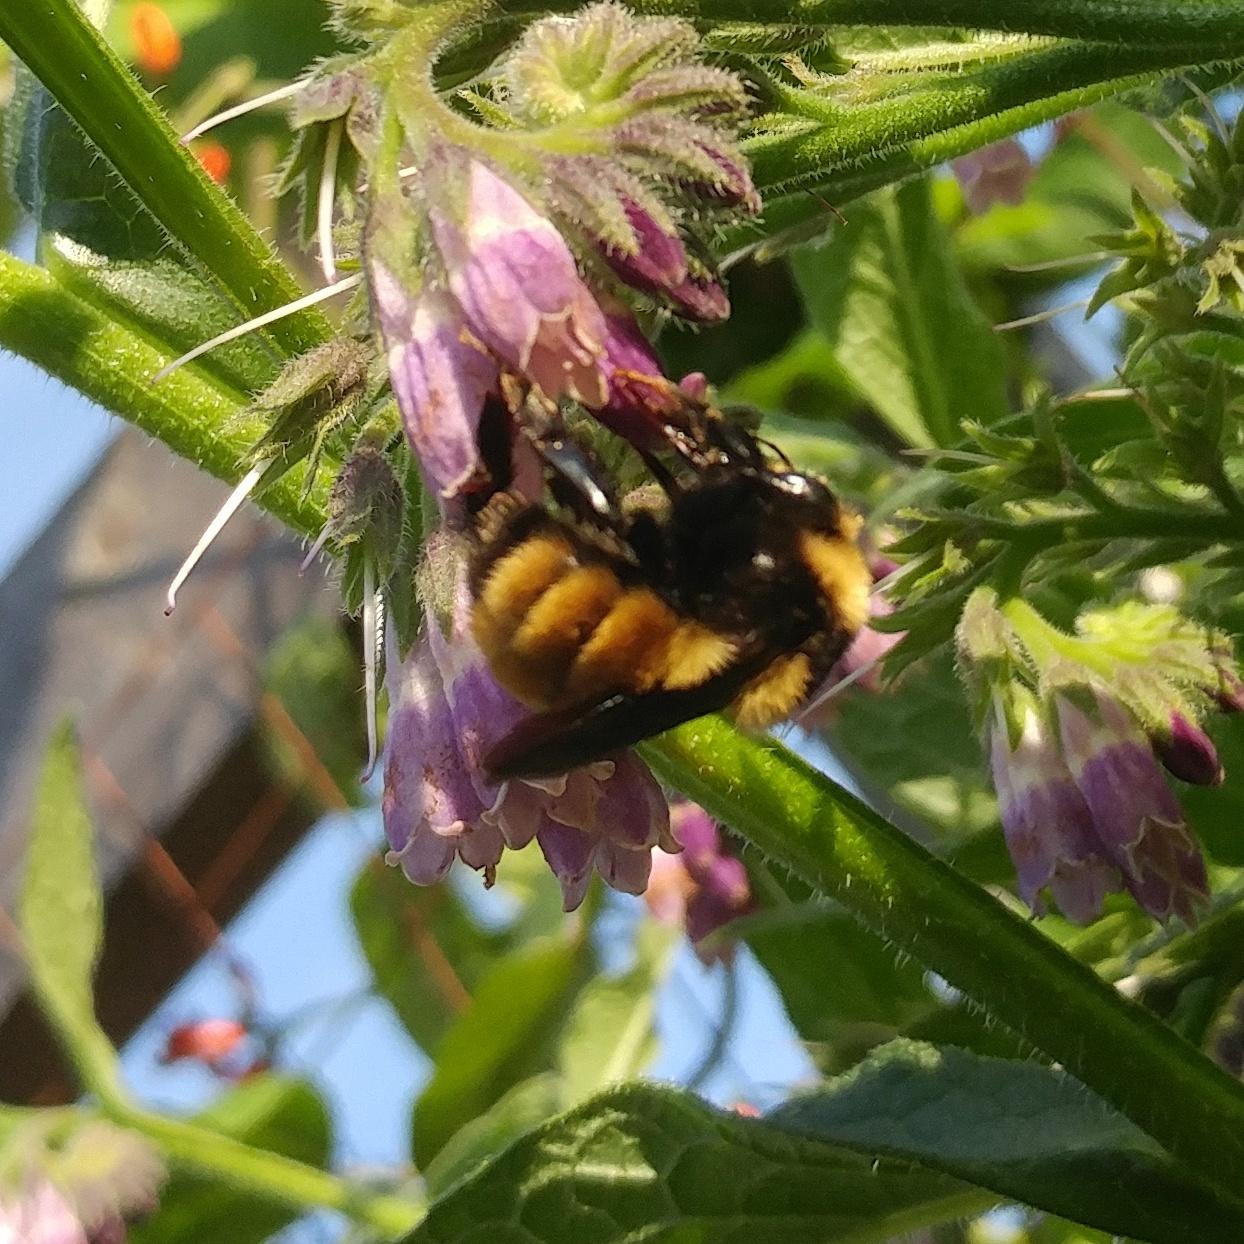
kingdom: Animalia
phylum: Arthropoda
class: Insecta
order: Hymenoptera
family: Apidae
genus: Bombus
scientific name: Bombus borealis
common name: Northern amber bumble bee
